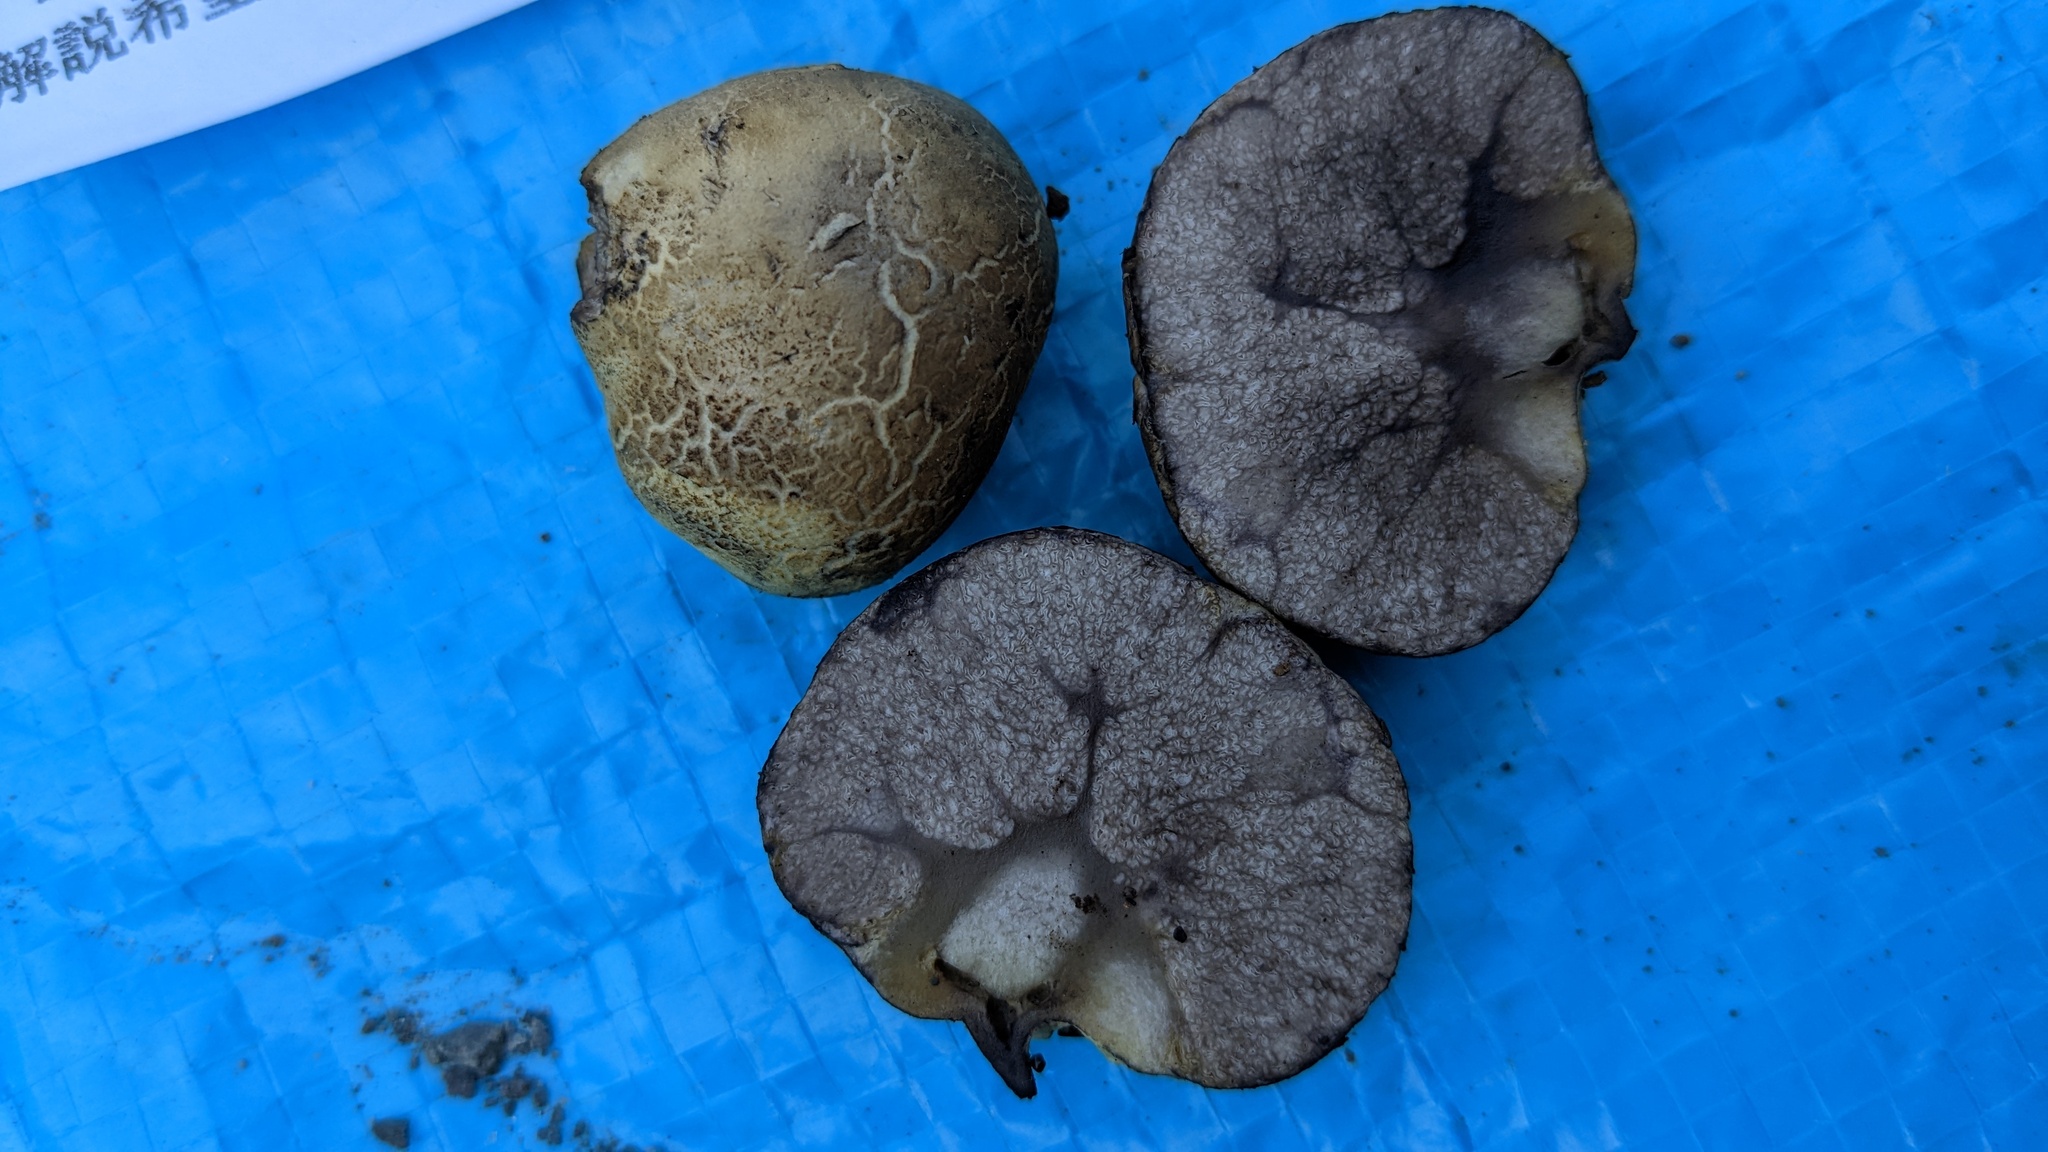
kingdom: Fungi
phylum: Basidiomycota
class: Agaricomycetes
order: Boletales
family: Boletaceae
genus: Heliogaster
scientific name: Heliogaster columellifer
